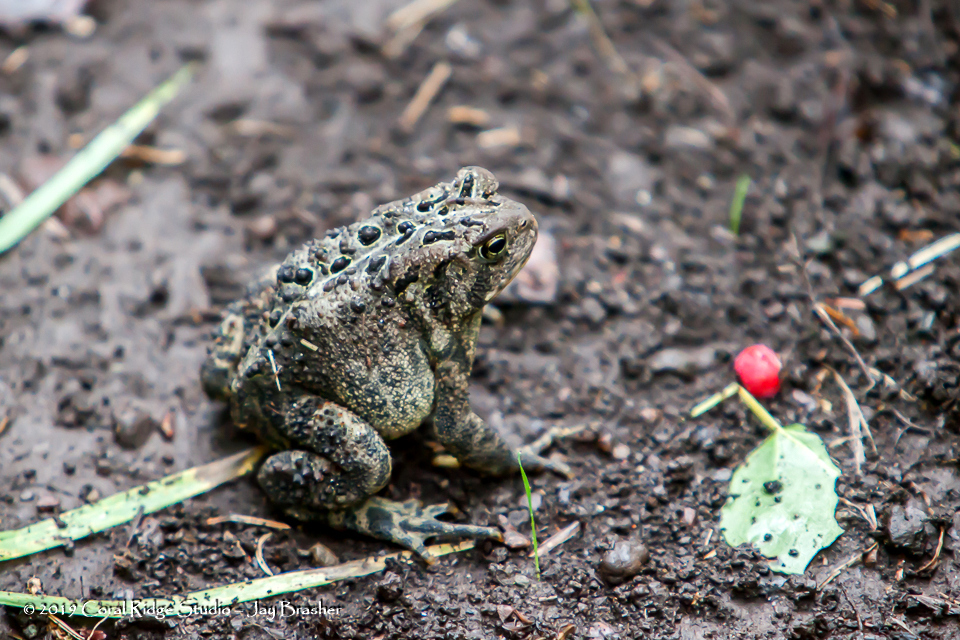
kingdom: Animalia
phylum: Chordata
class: Amphibia
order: Anura
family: Bufonidae
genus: Anaxyrus
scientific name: Anaxyrus americanus
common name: American toad
